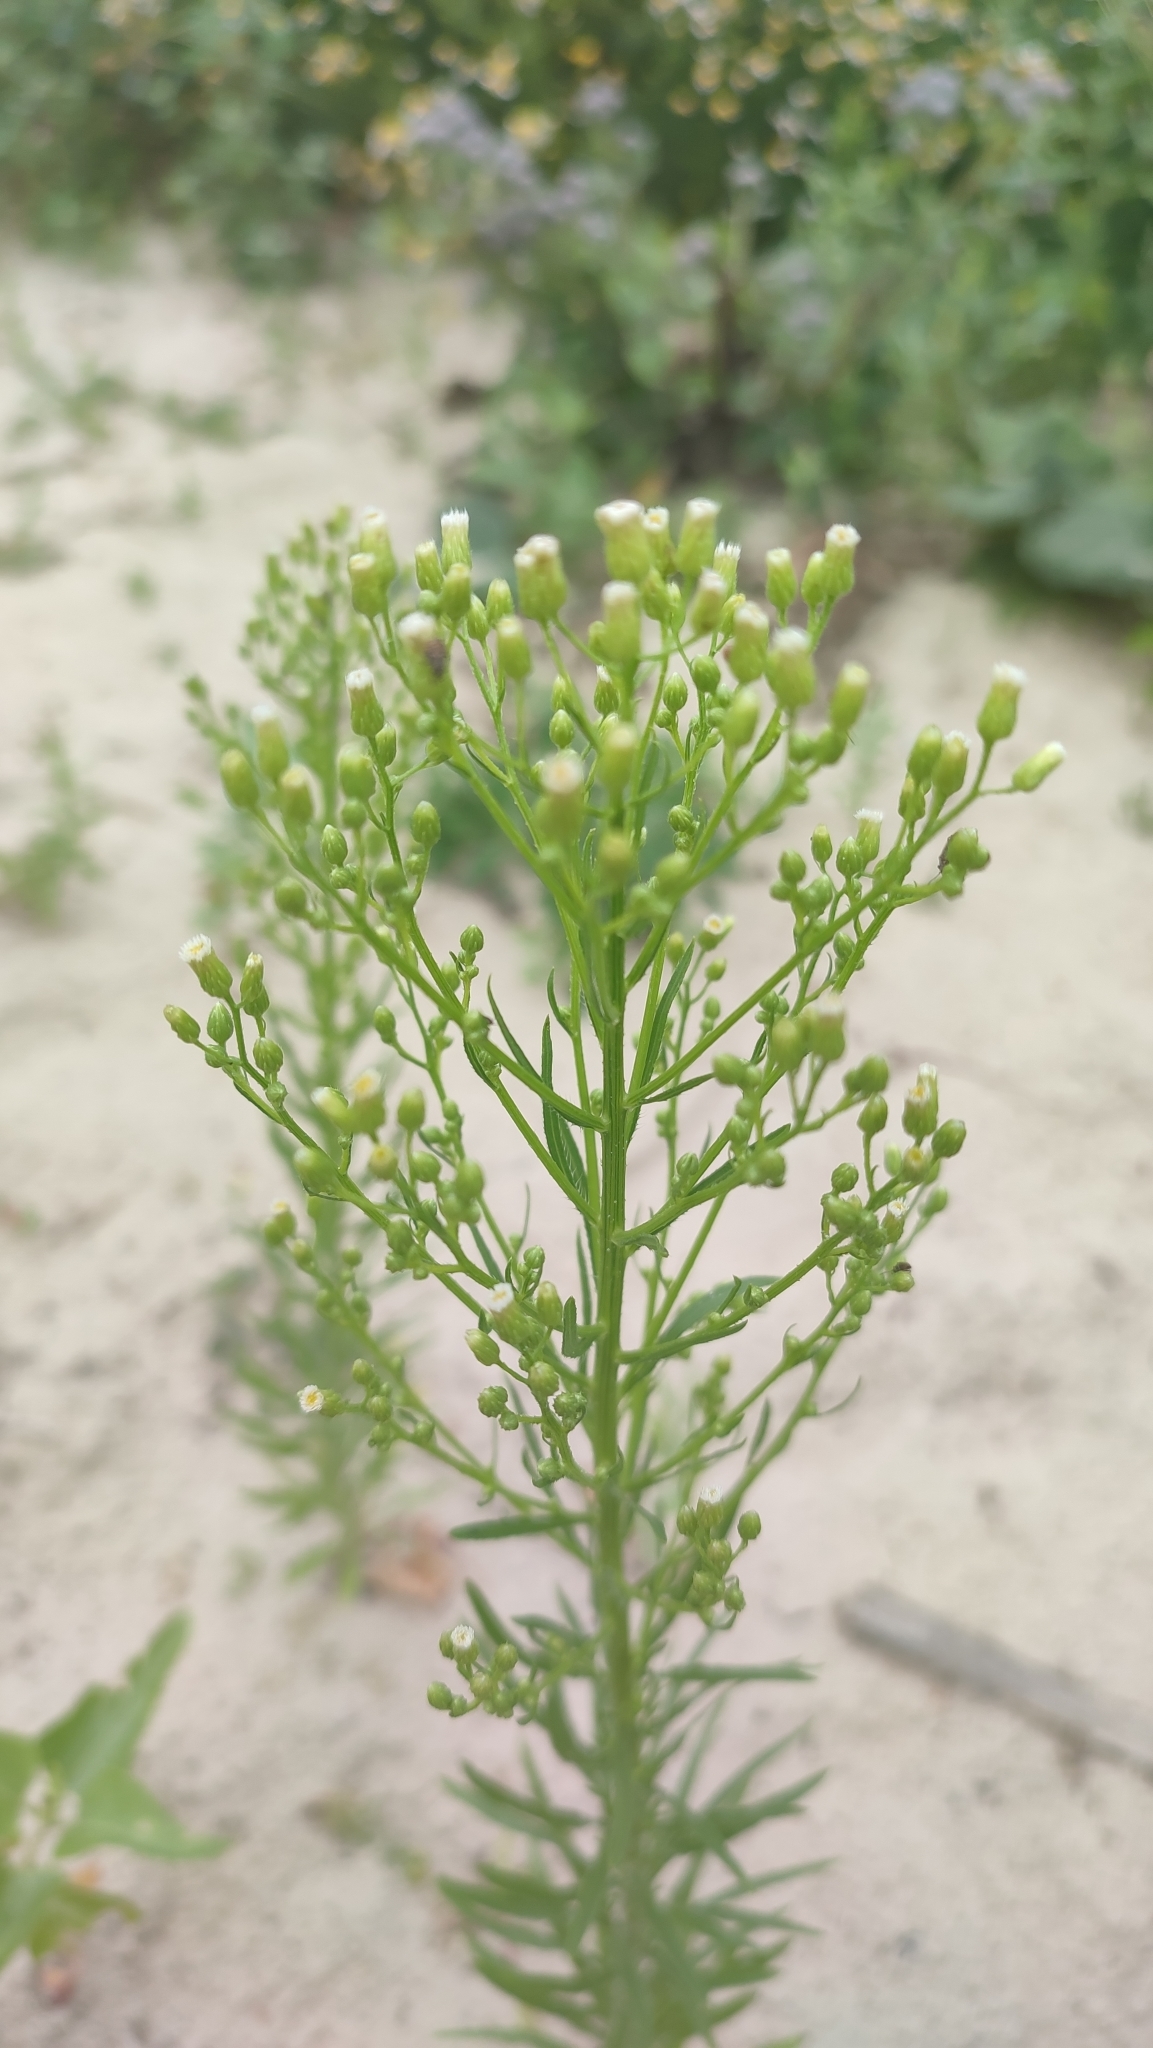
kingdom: Plantae
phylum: Tracheophyta
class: Magnoliopsida
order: Asterales
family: Asteraceae
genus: Erigeron
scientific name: Erigeron canadensis
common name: Canadian fleabane
